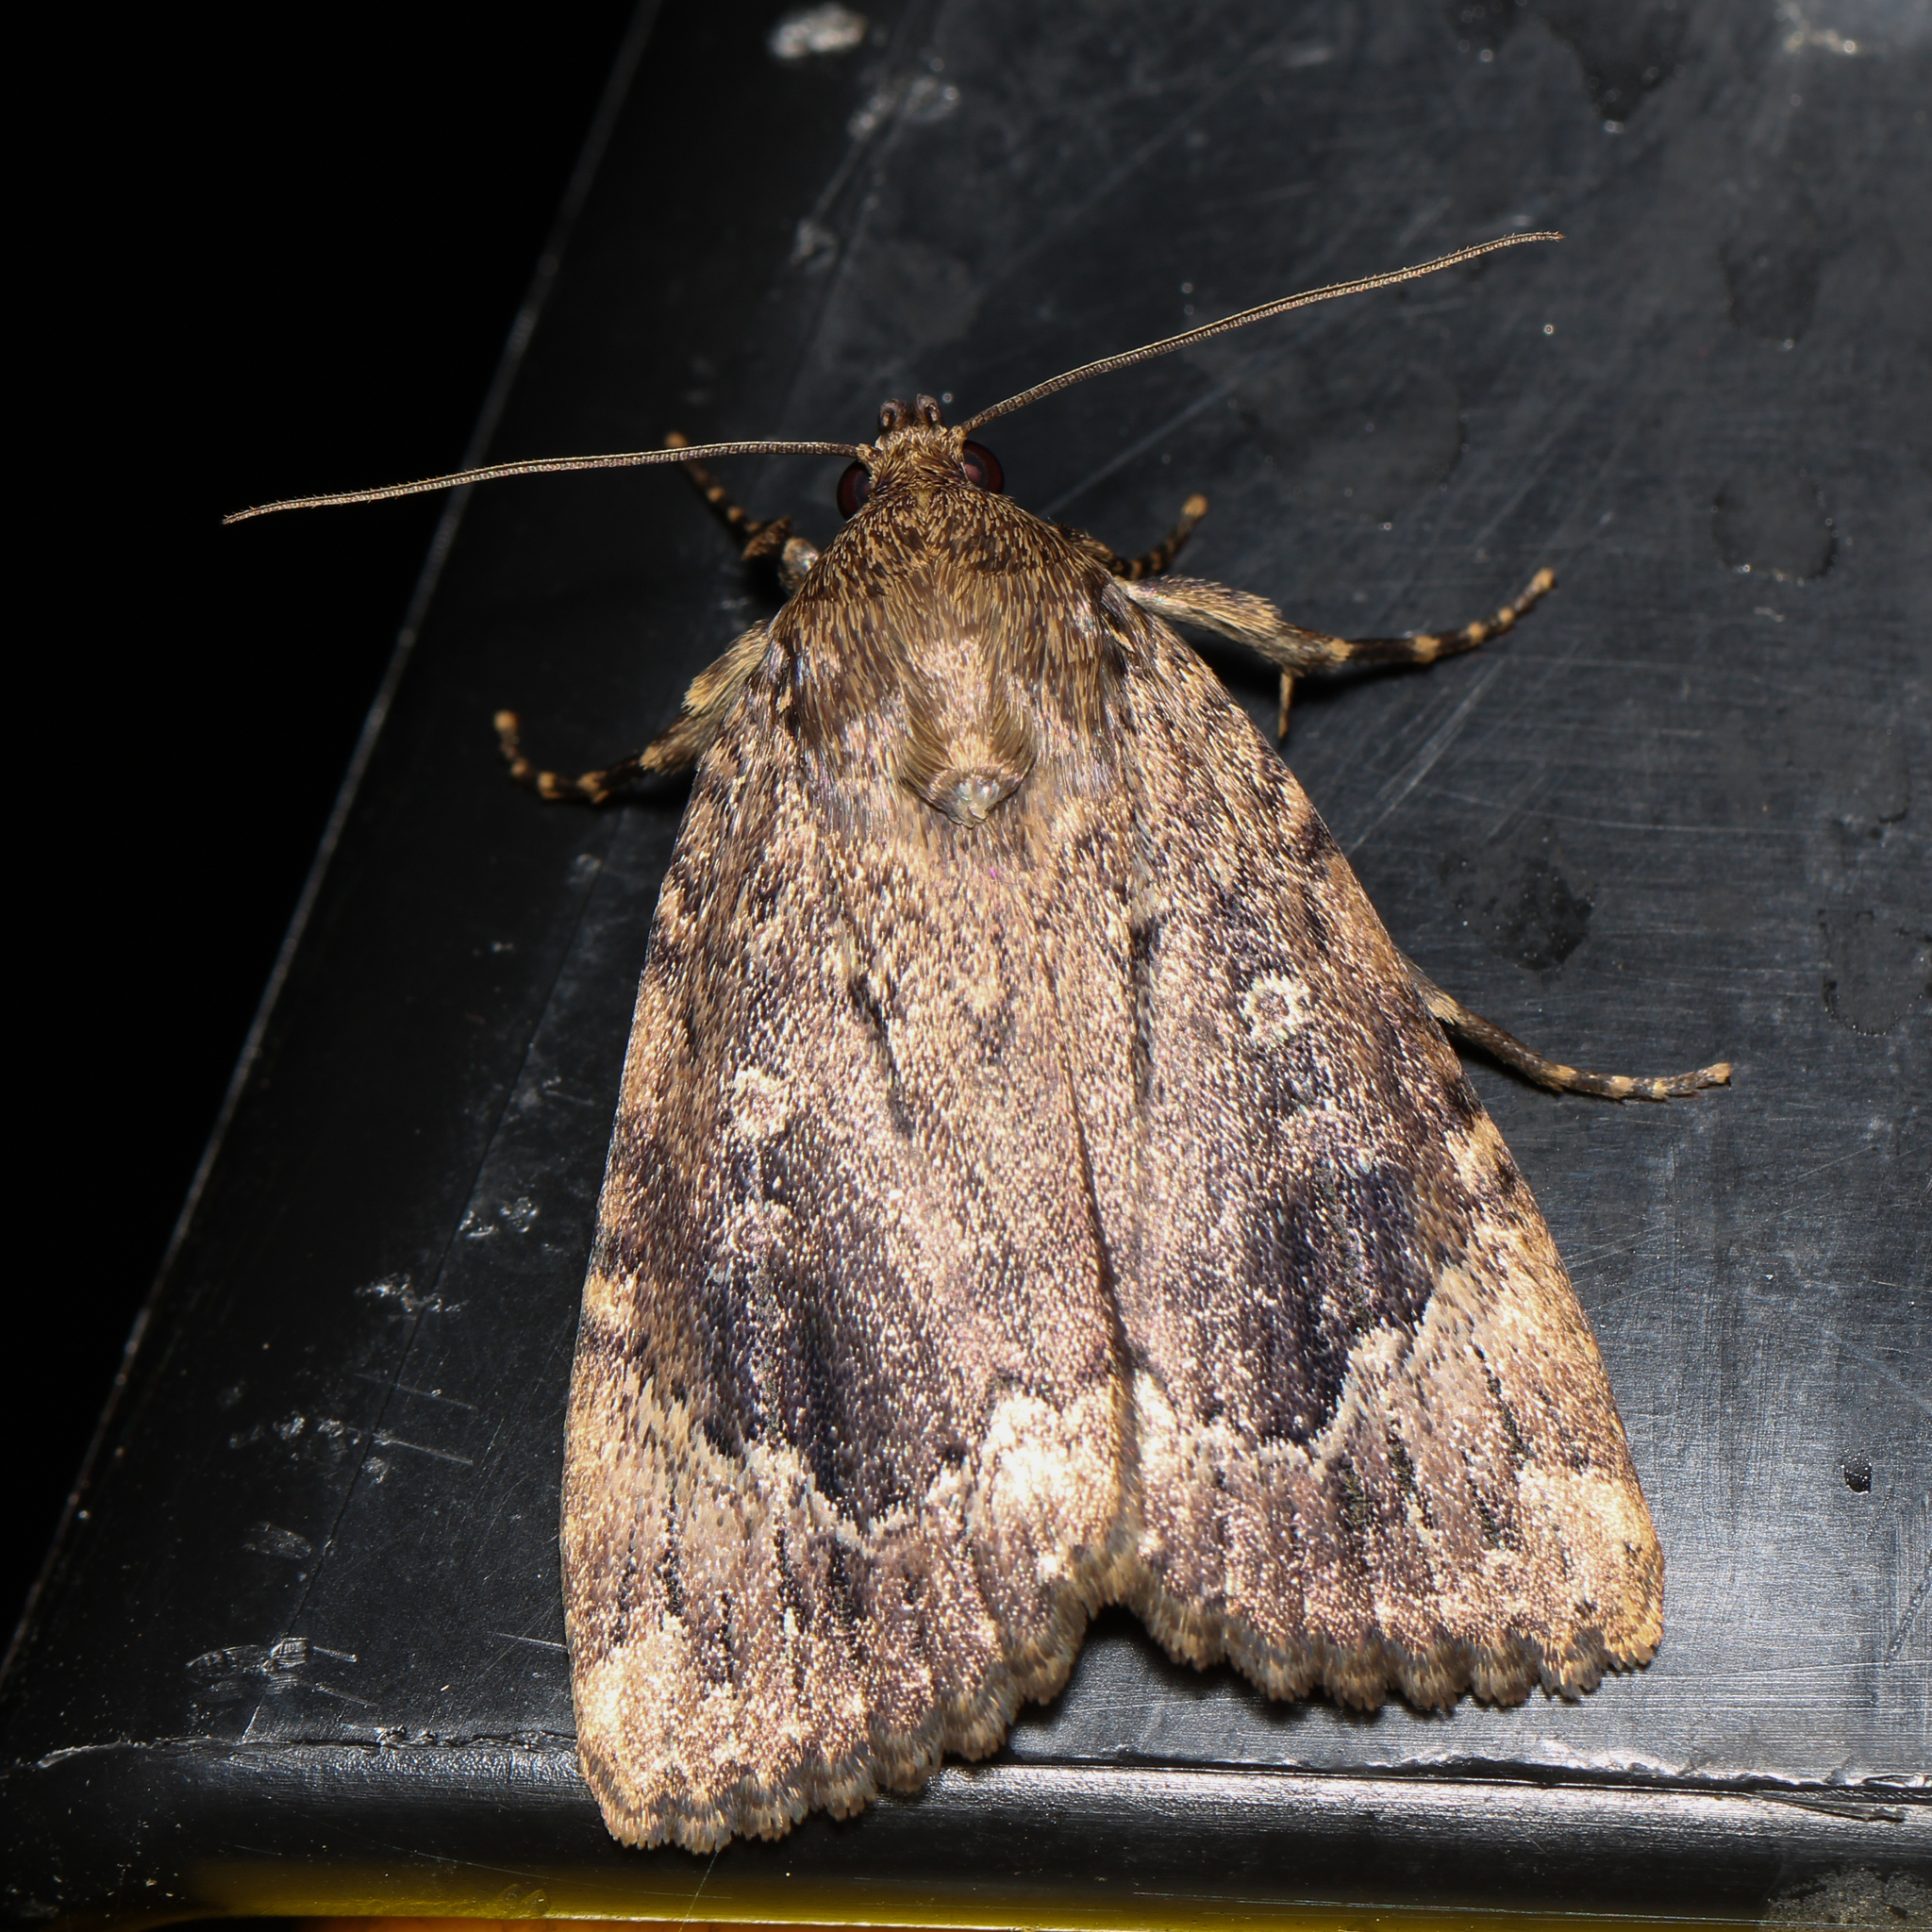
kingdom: Animalia
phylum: Arthropoda
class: Insecta
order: Lepidoptera
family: Noctuidae
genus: Amphipyra
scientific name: Amphipyra pyramidoides
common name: American copper underwing
